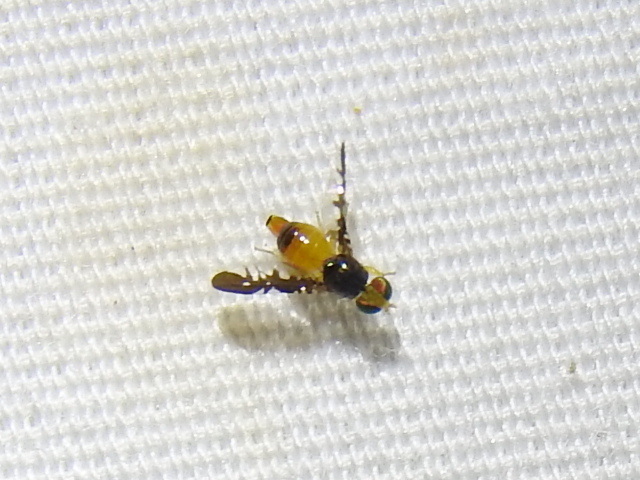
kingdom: Animalia
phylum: Arthropoda
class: Insecta
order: Diptera
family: Tephritidae
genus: Xanthaciura
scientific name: Xanthaciura tetraspina
